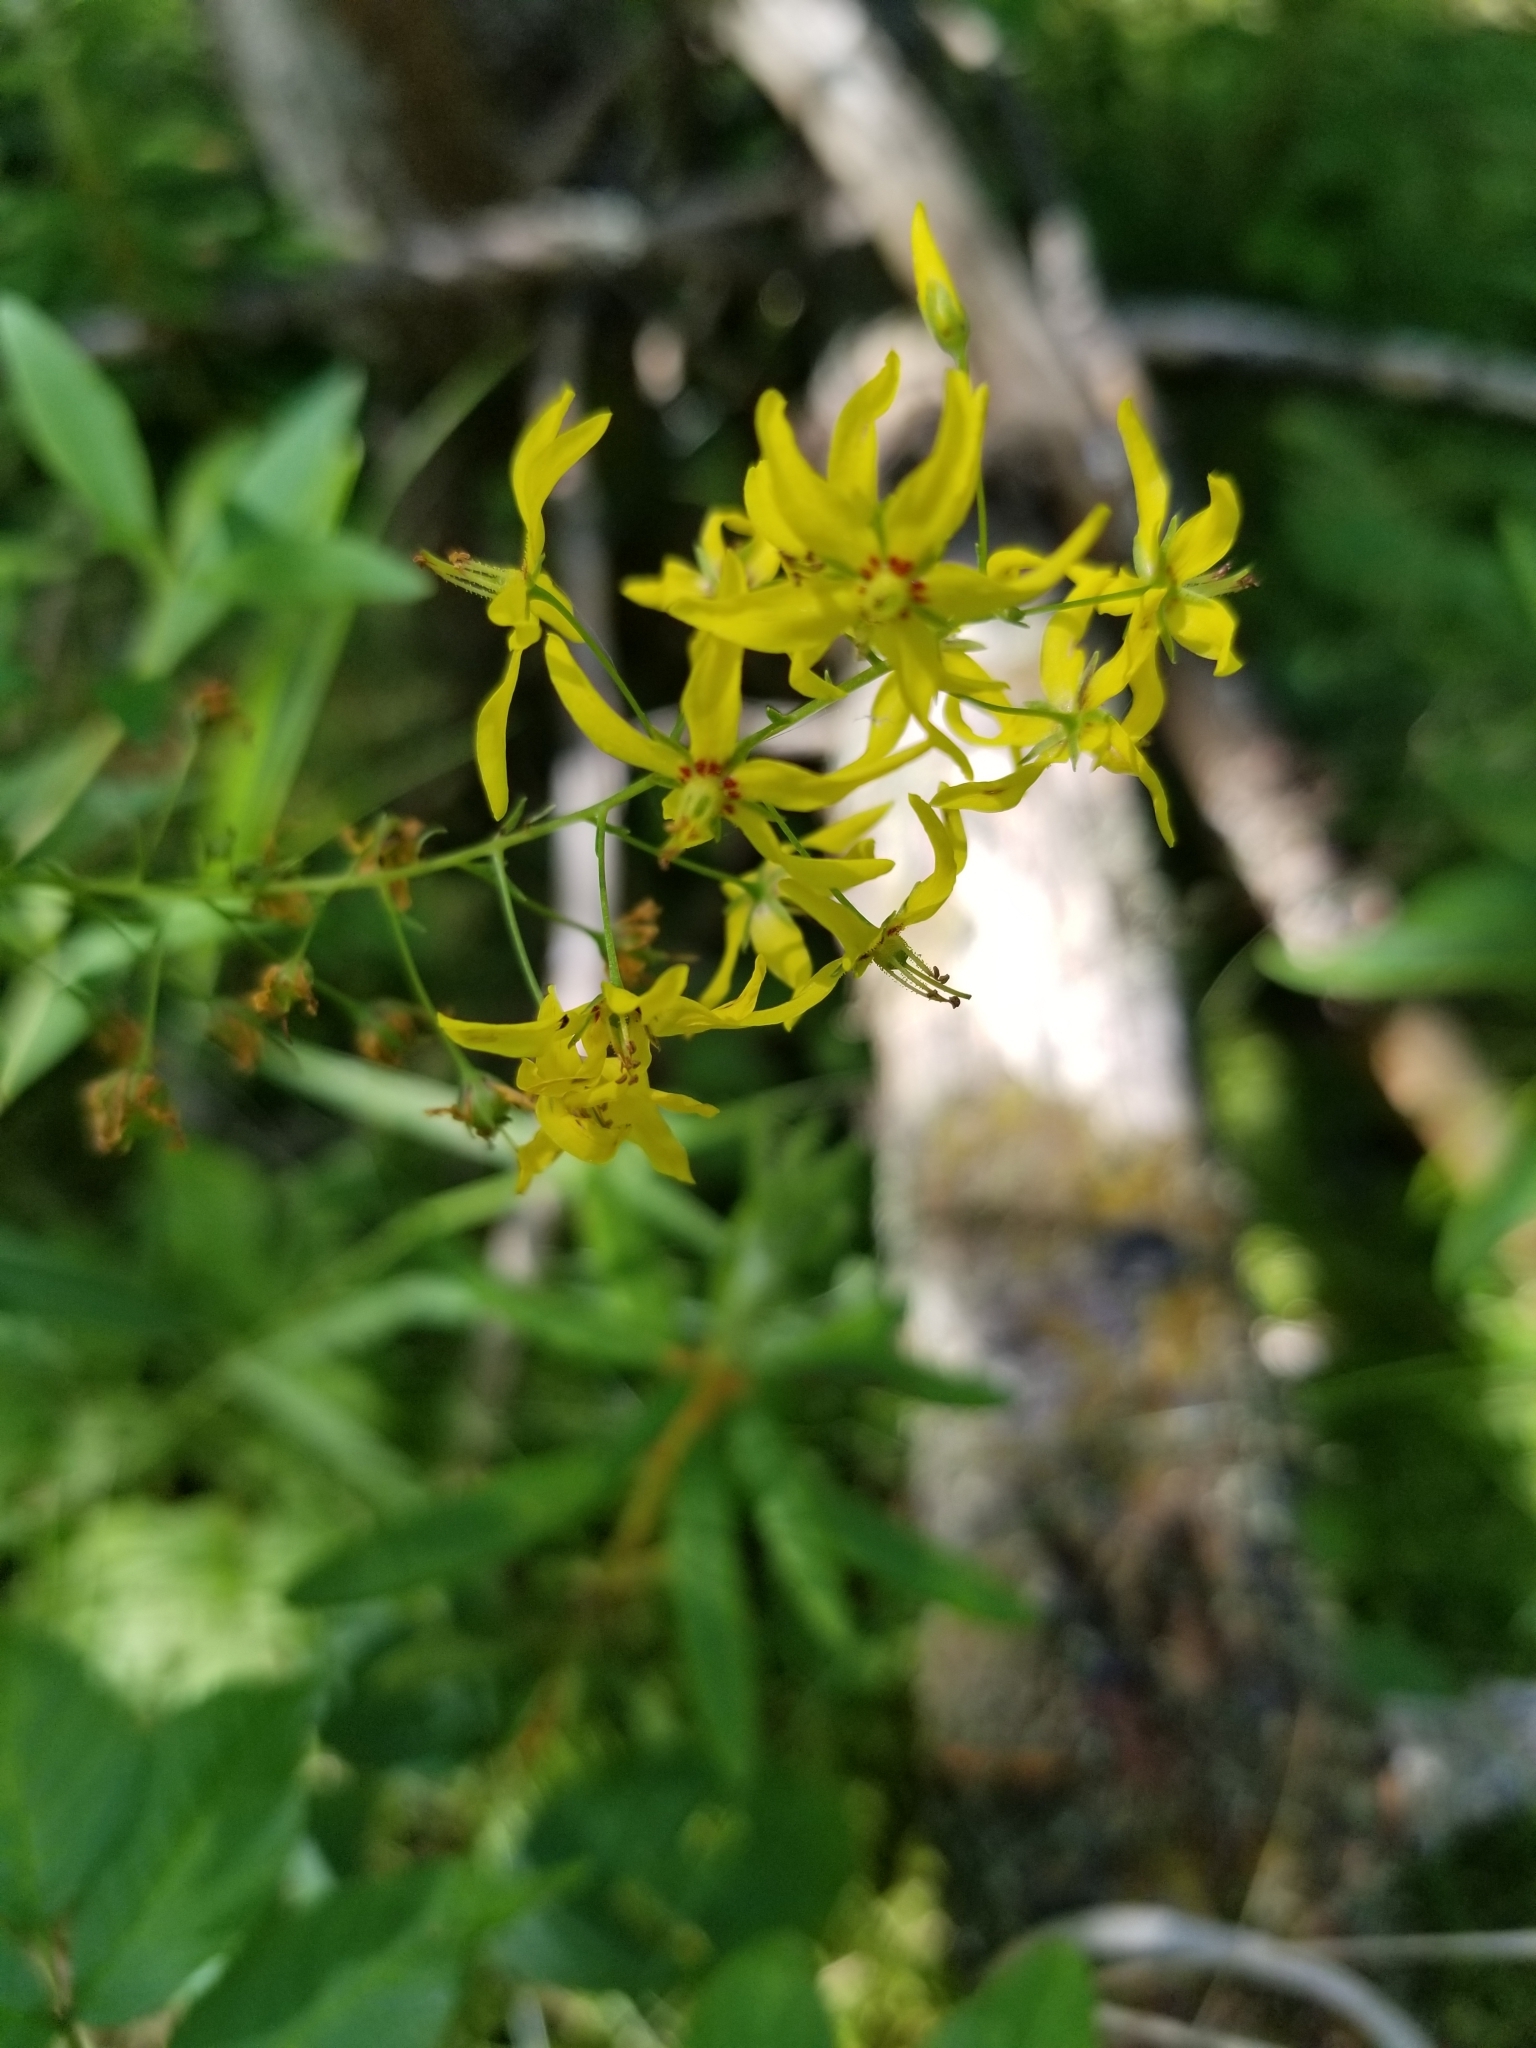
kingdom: Plantae
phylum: Tracheophyta
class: Magnoliopsida
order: Ericales
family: Primulaceae
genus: Lysimachia
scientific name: Lysimachia terrestris
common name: Lake loosestrife
